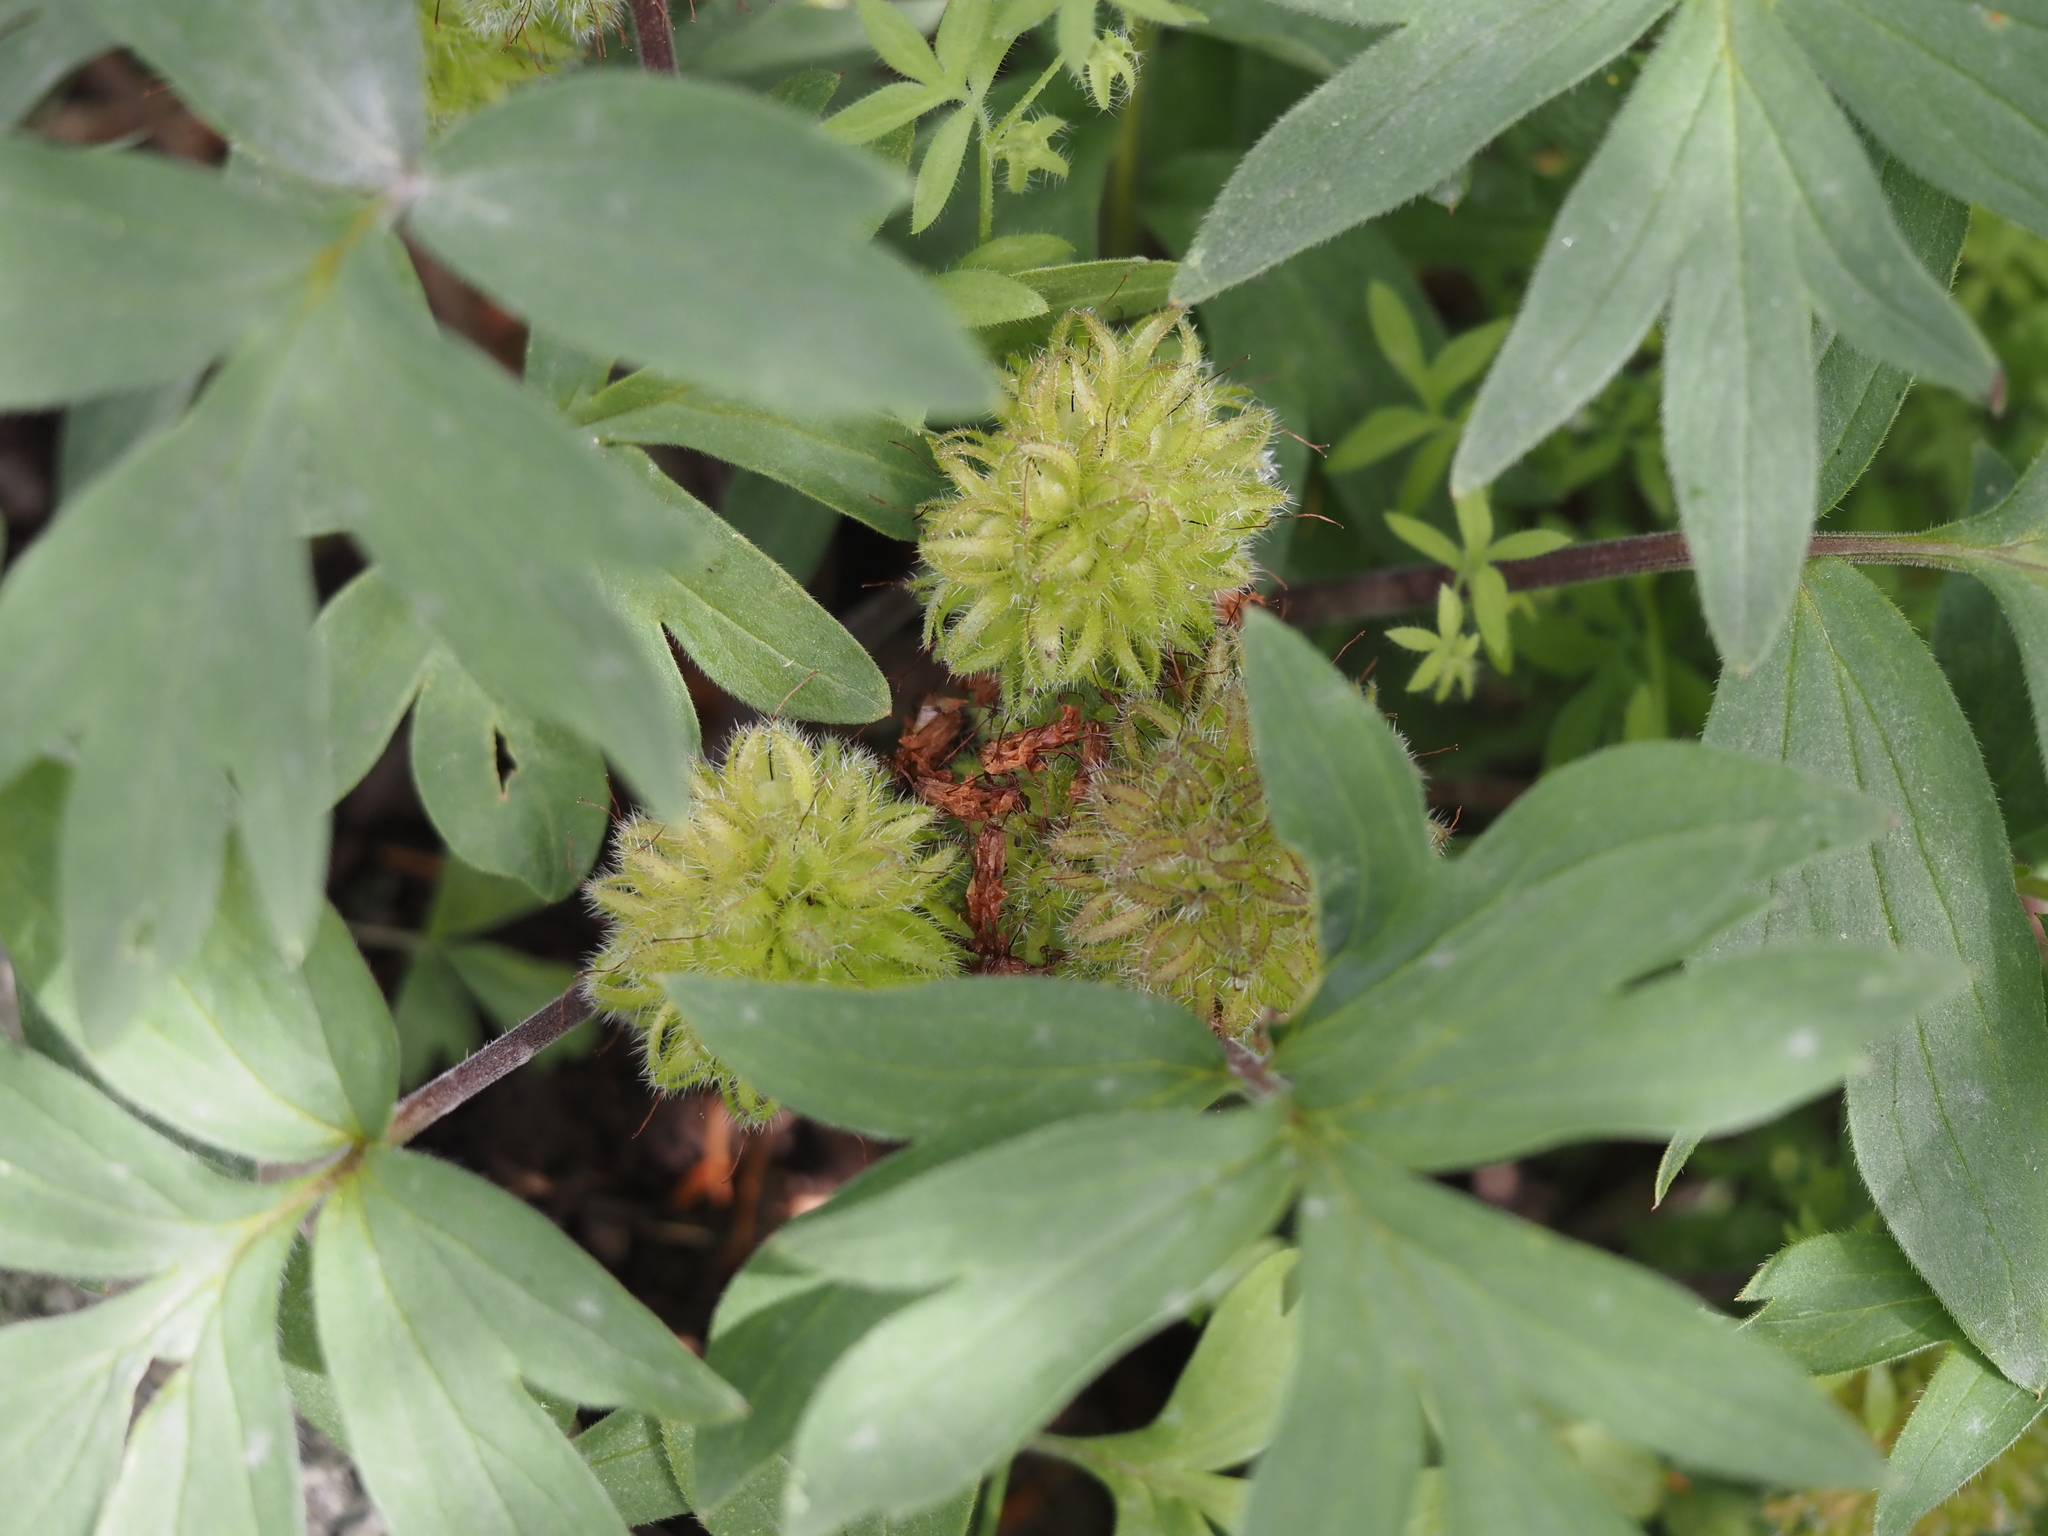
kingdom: Plantae
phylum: Tracheophyta
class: Magnoliopsida
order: Boraginales
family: Hydrophyllaceae
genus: Hydrophyllum
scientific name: Hydrophyllum capitatum
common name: Woollen-breeches
